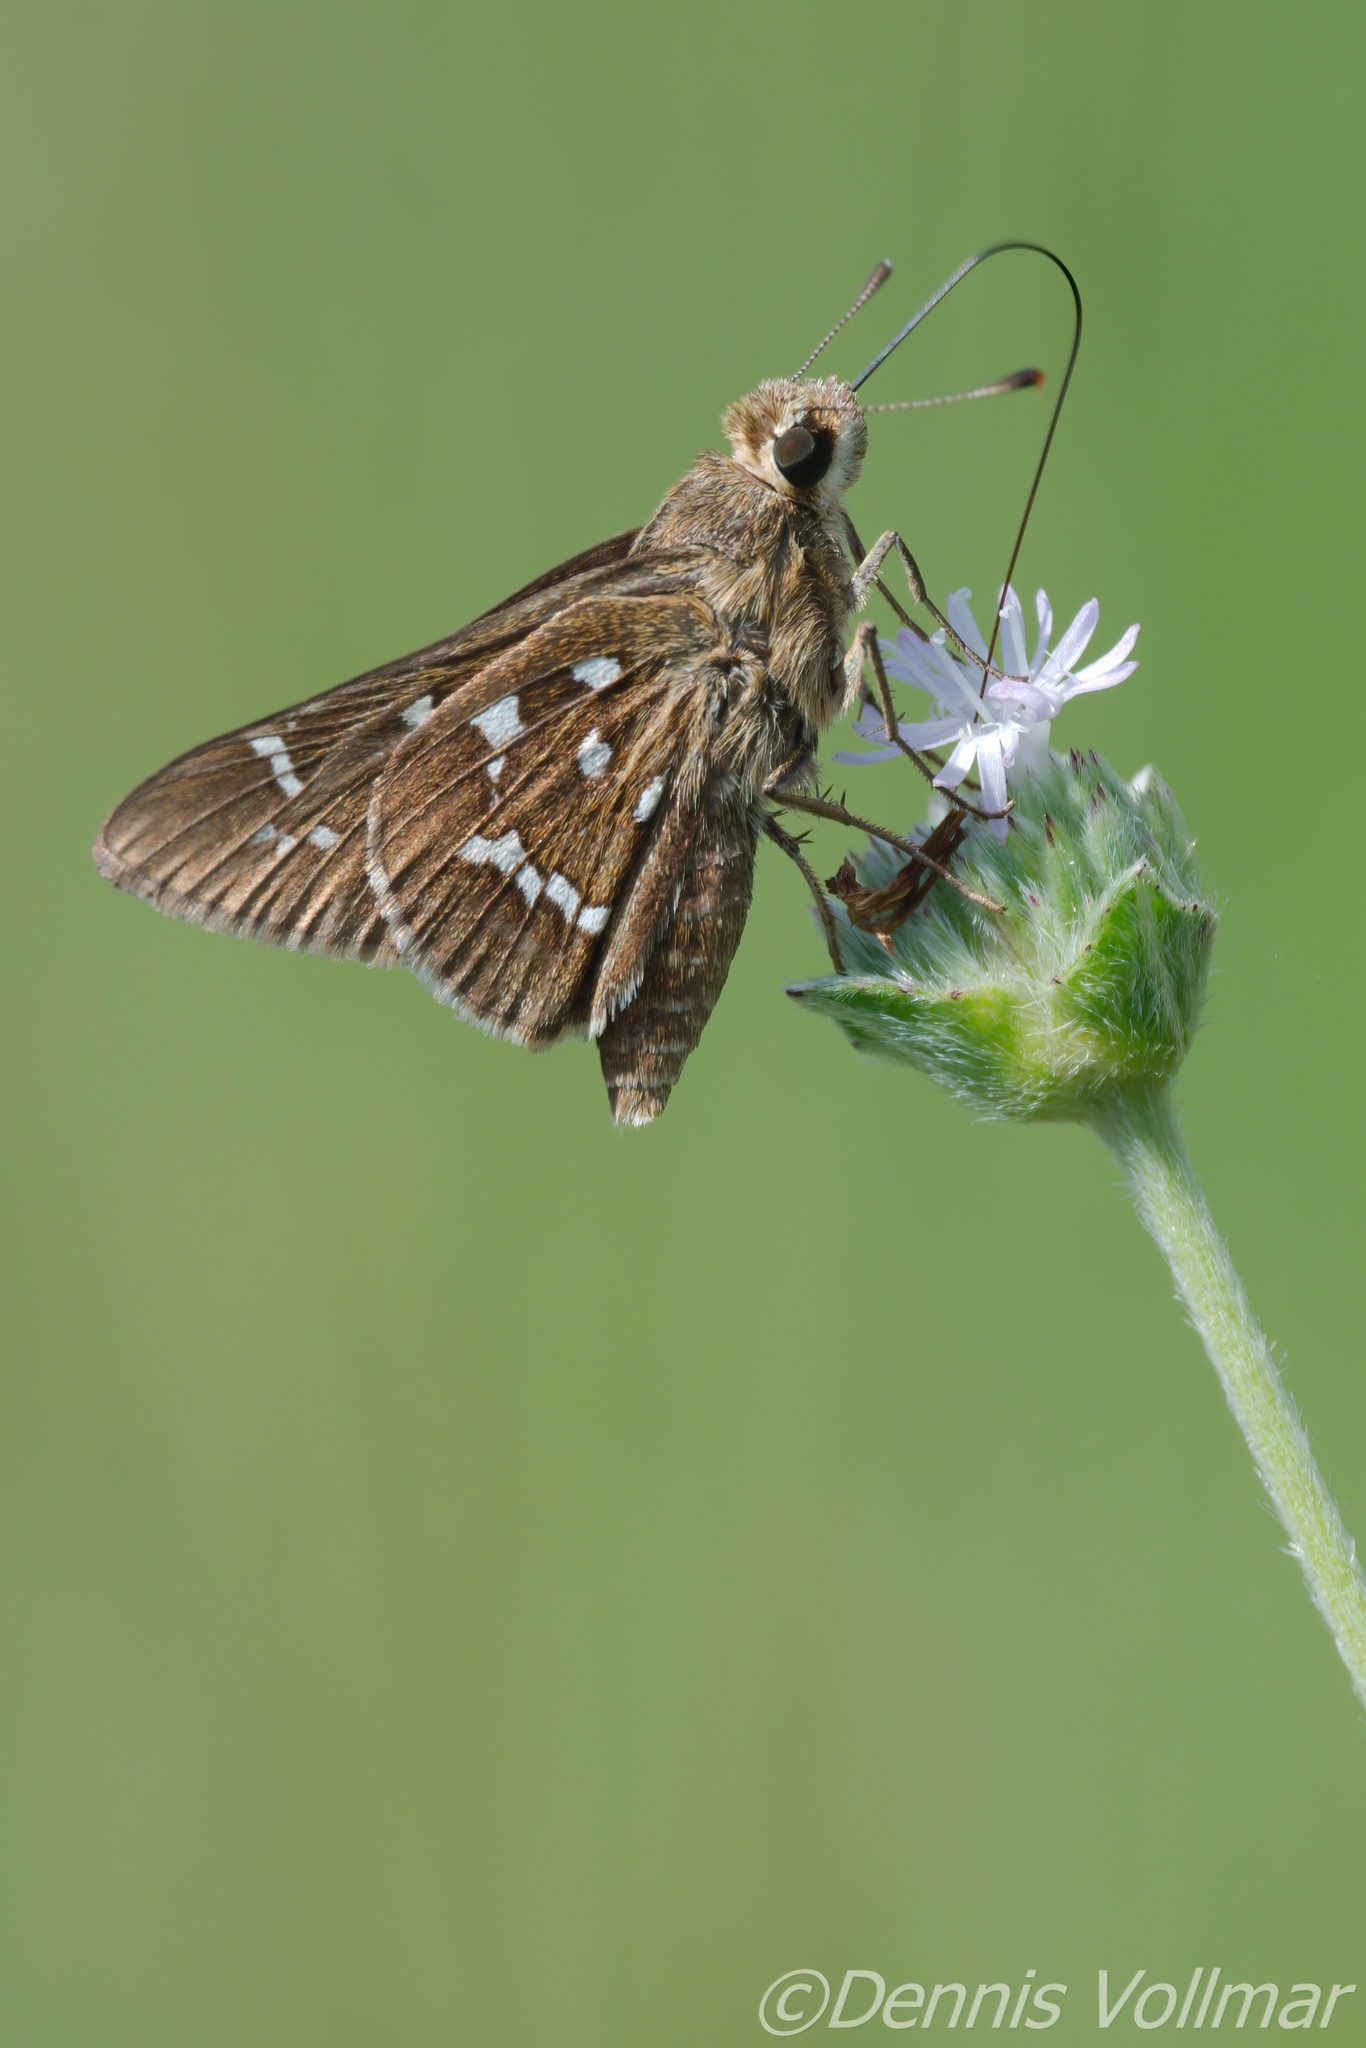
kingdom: Animalia
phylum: Arthropoda
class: Insecta
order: Lepidoptera
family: Hesperiidae
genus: Atrytonopsis
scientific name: Atrytonopsis loammi
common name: Loammi skipper
